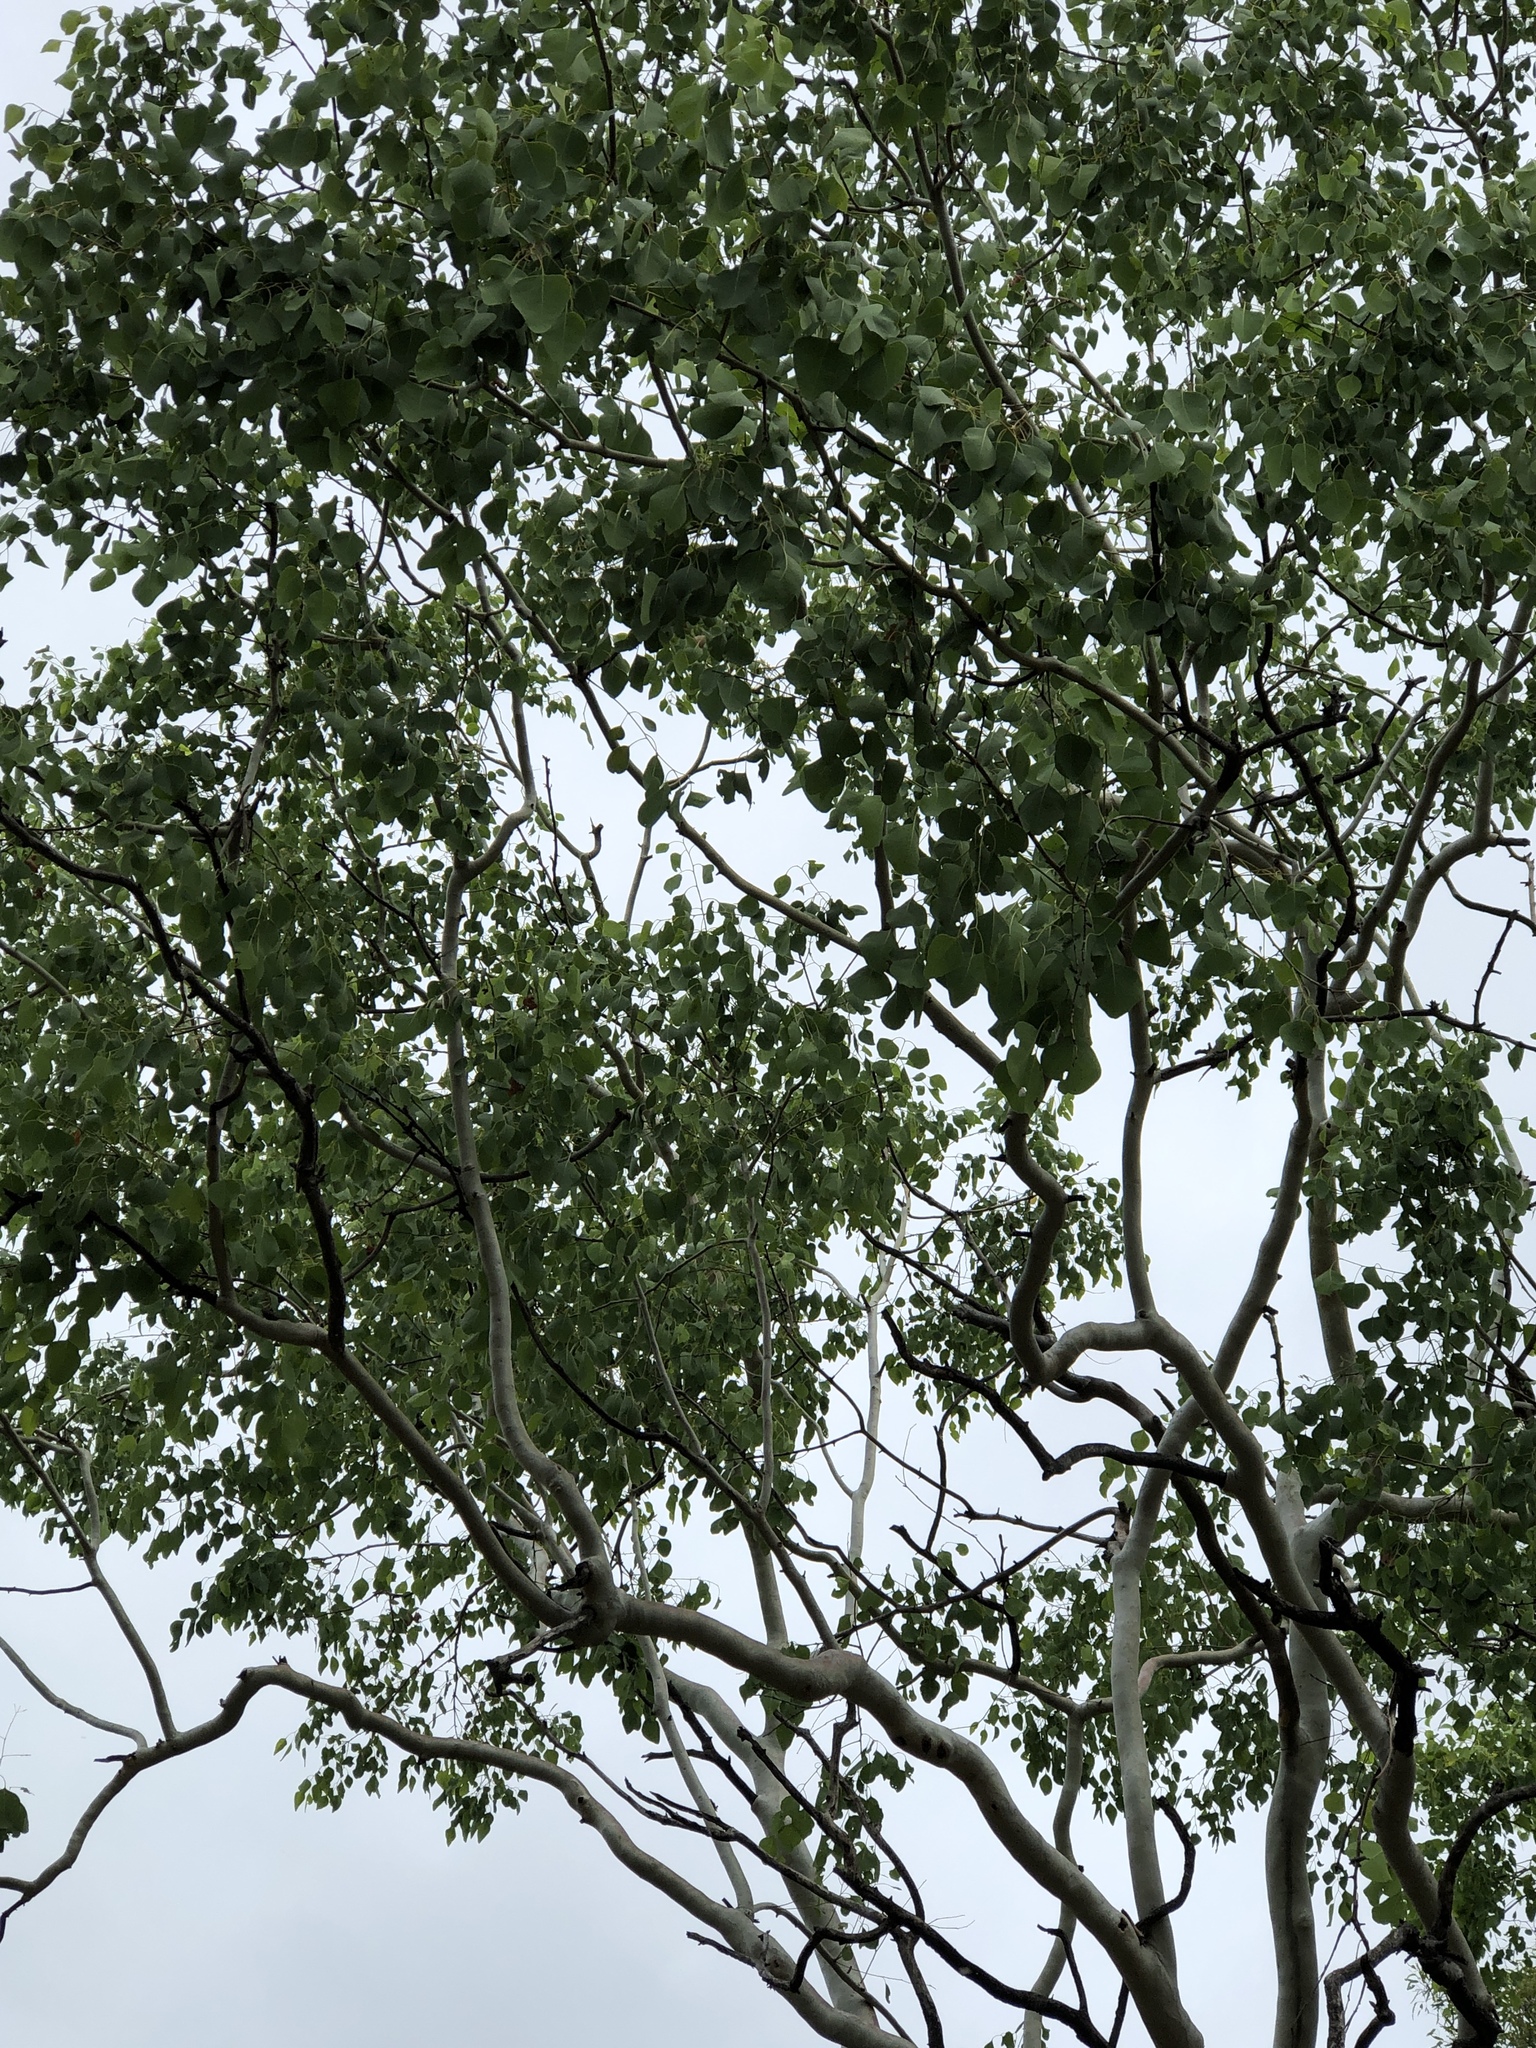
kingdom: Plantae
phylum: Tracheophyta
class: Magnoliopsida
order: Myrtales
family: Myrtaceae
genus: Eucalyptus
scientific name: Eucalyptus platyphylla
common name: Poplar-gum
